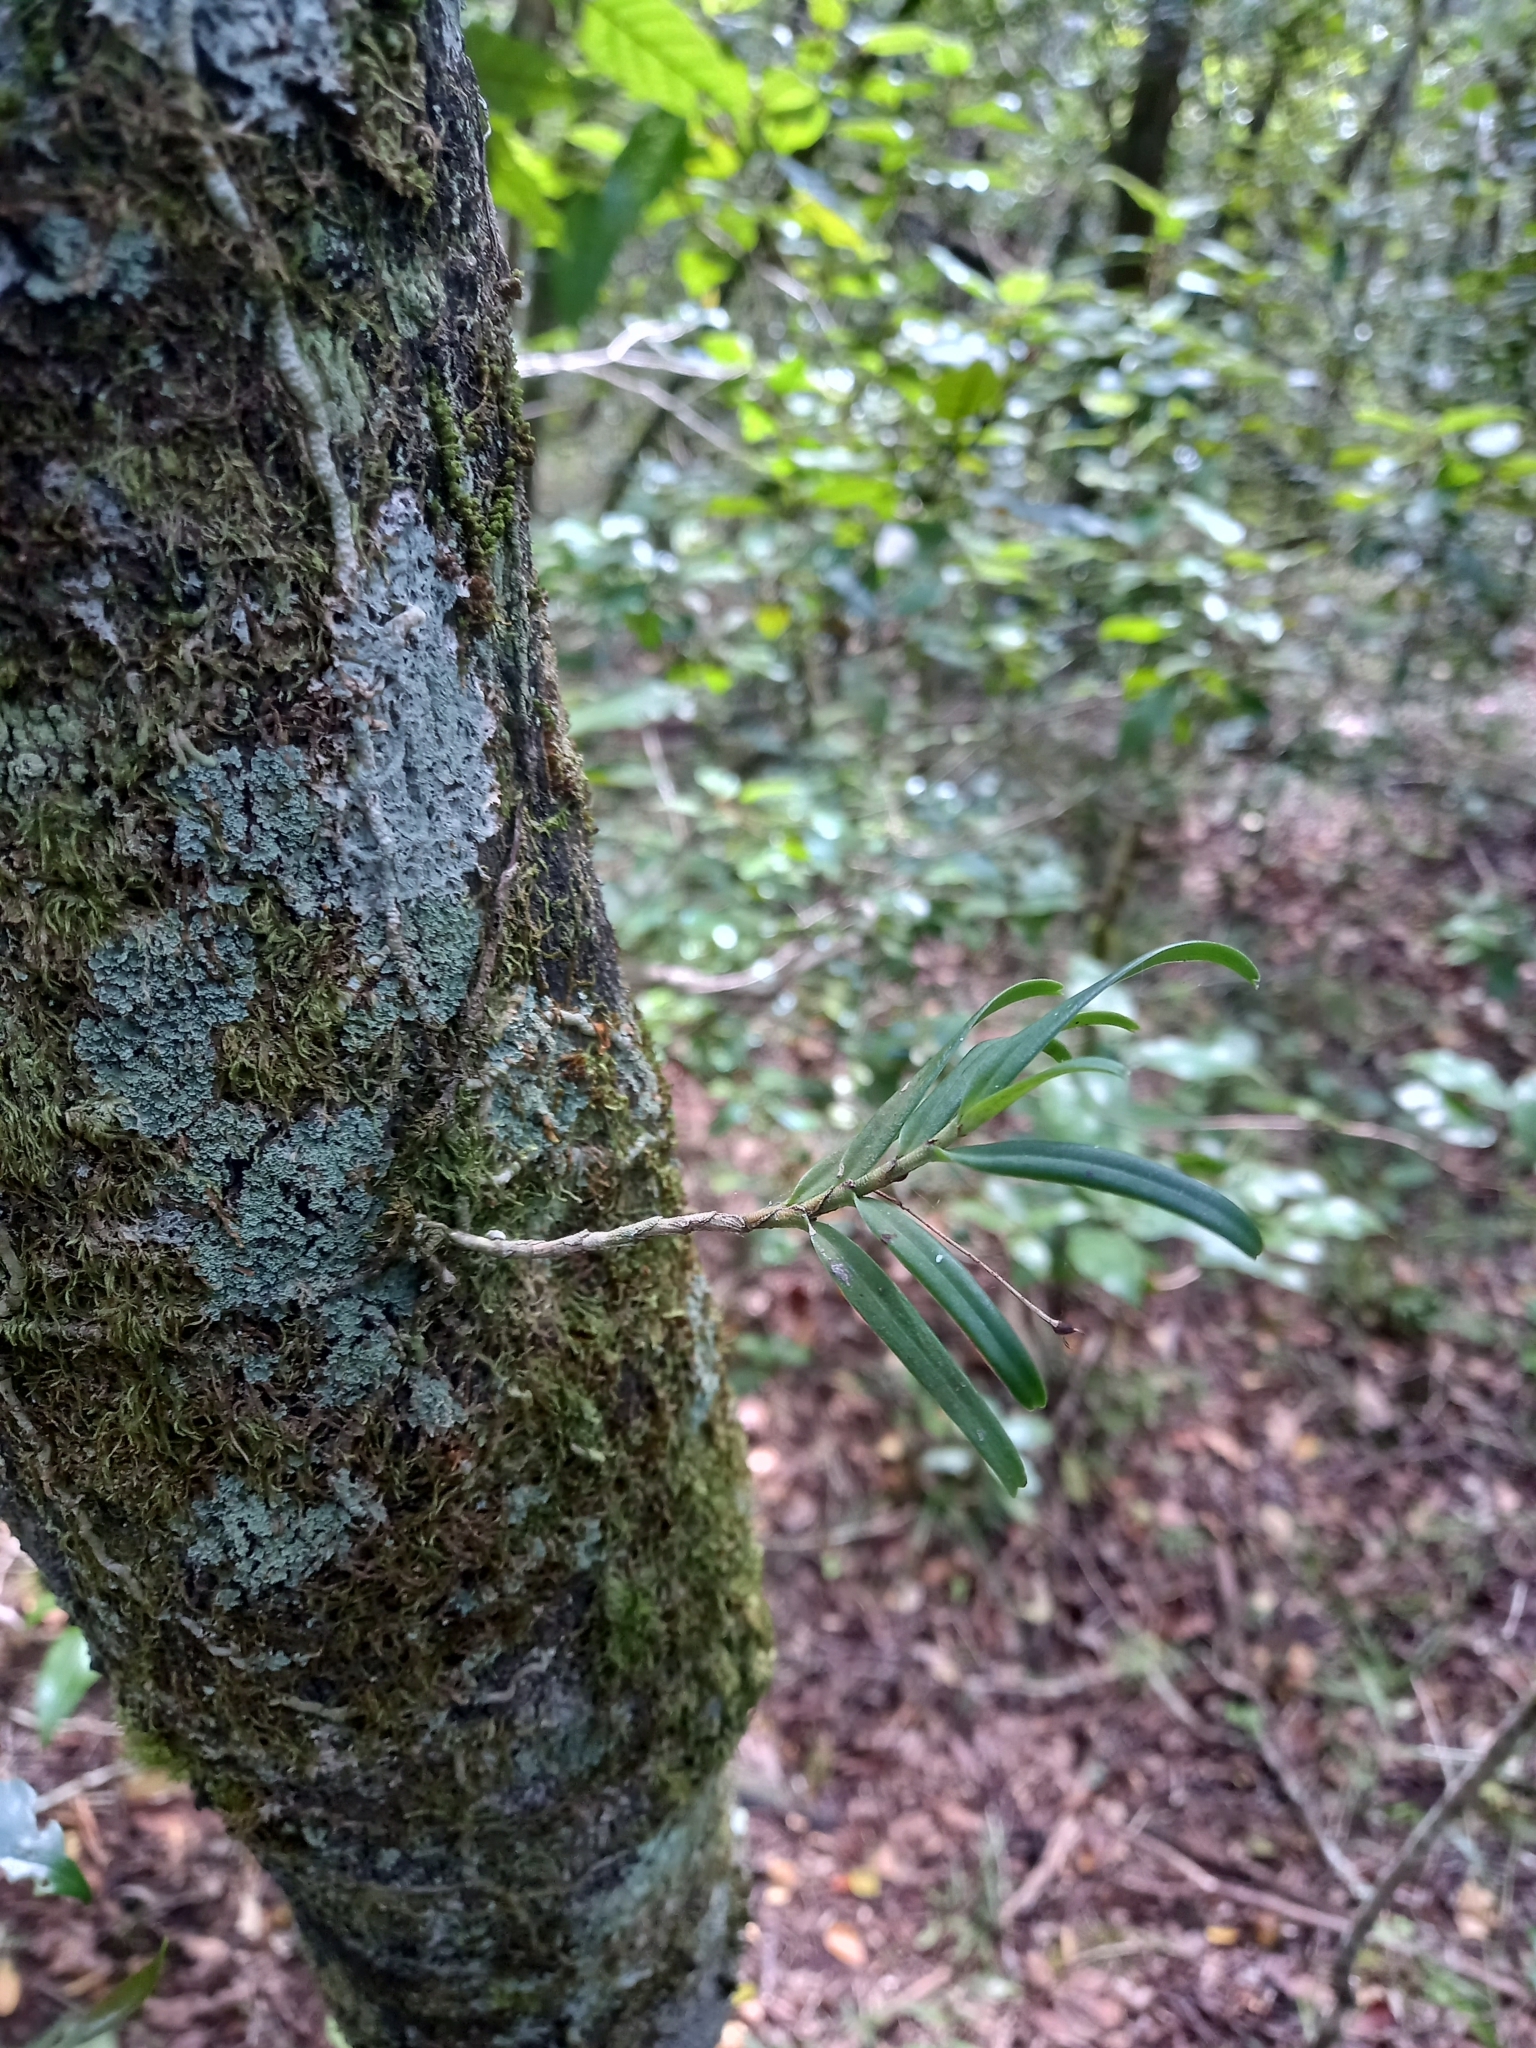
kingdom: Plantae
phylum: Tracheophyta
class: Liliopsida
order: Asparagales
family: Orchidaceae
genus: Angraecum
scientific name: Angraecum conchiferum
